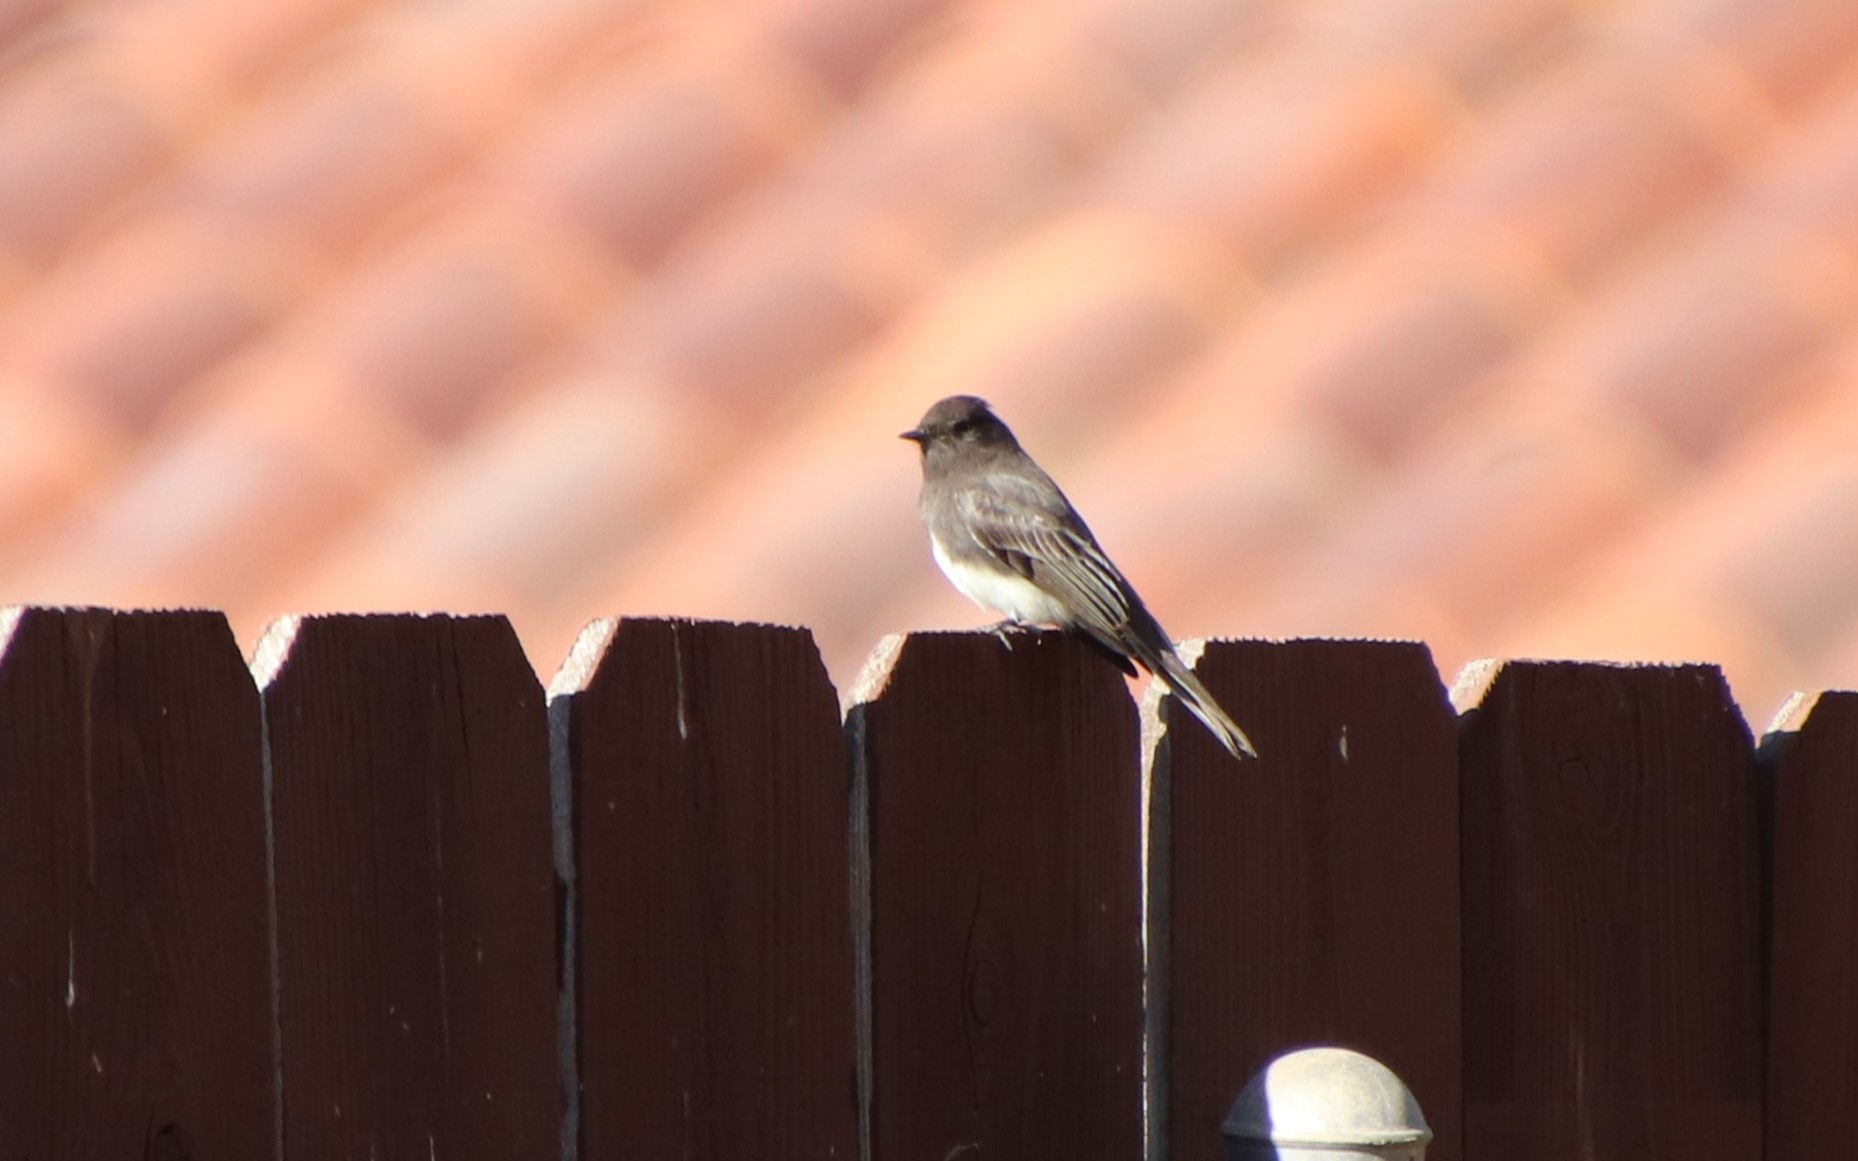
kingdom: Animalia
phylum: Chordata
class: Aves
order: Passeriformes
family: Tyrannidae
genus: Sayornis
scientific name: Sayornis nigricans
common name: Black phoebe
